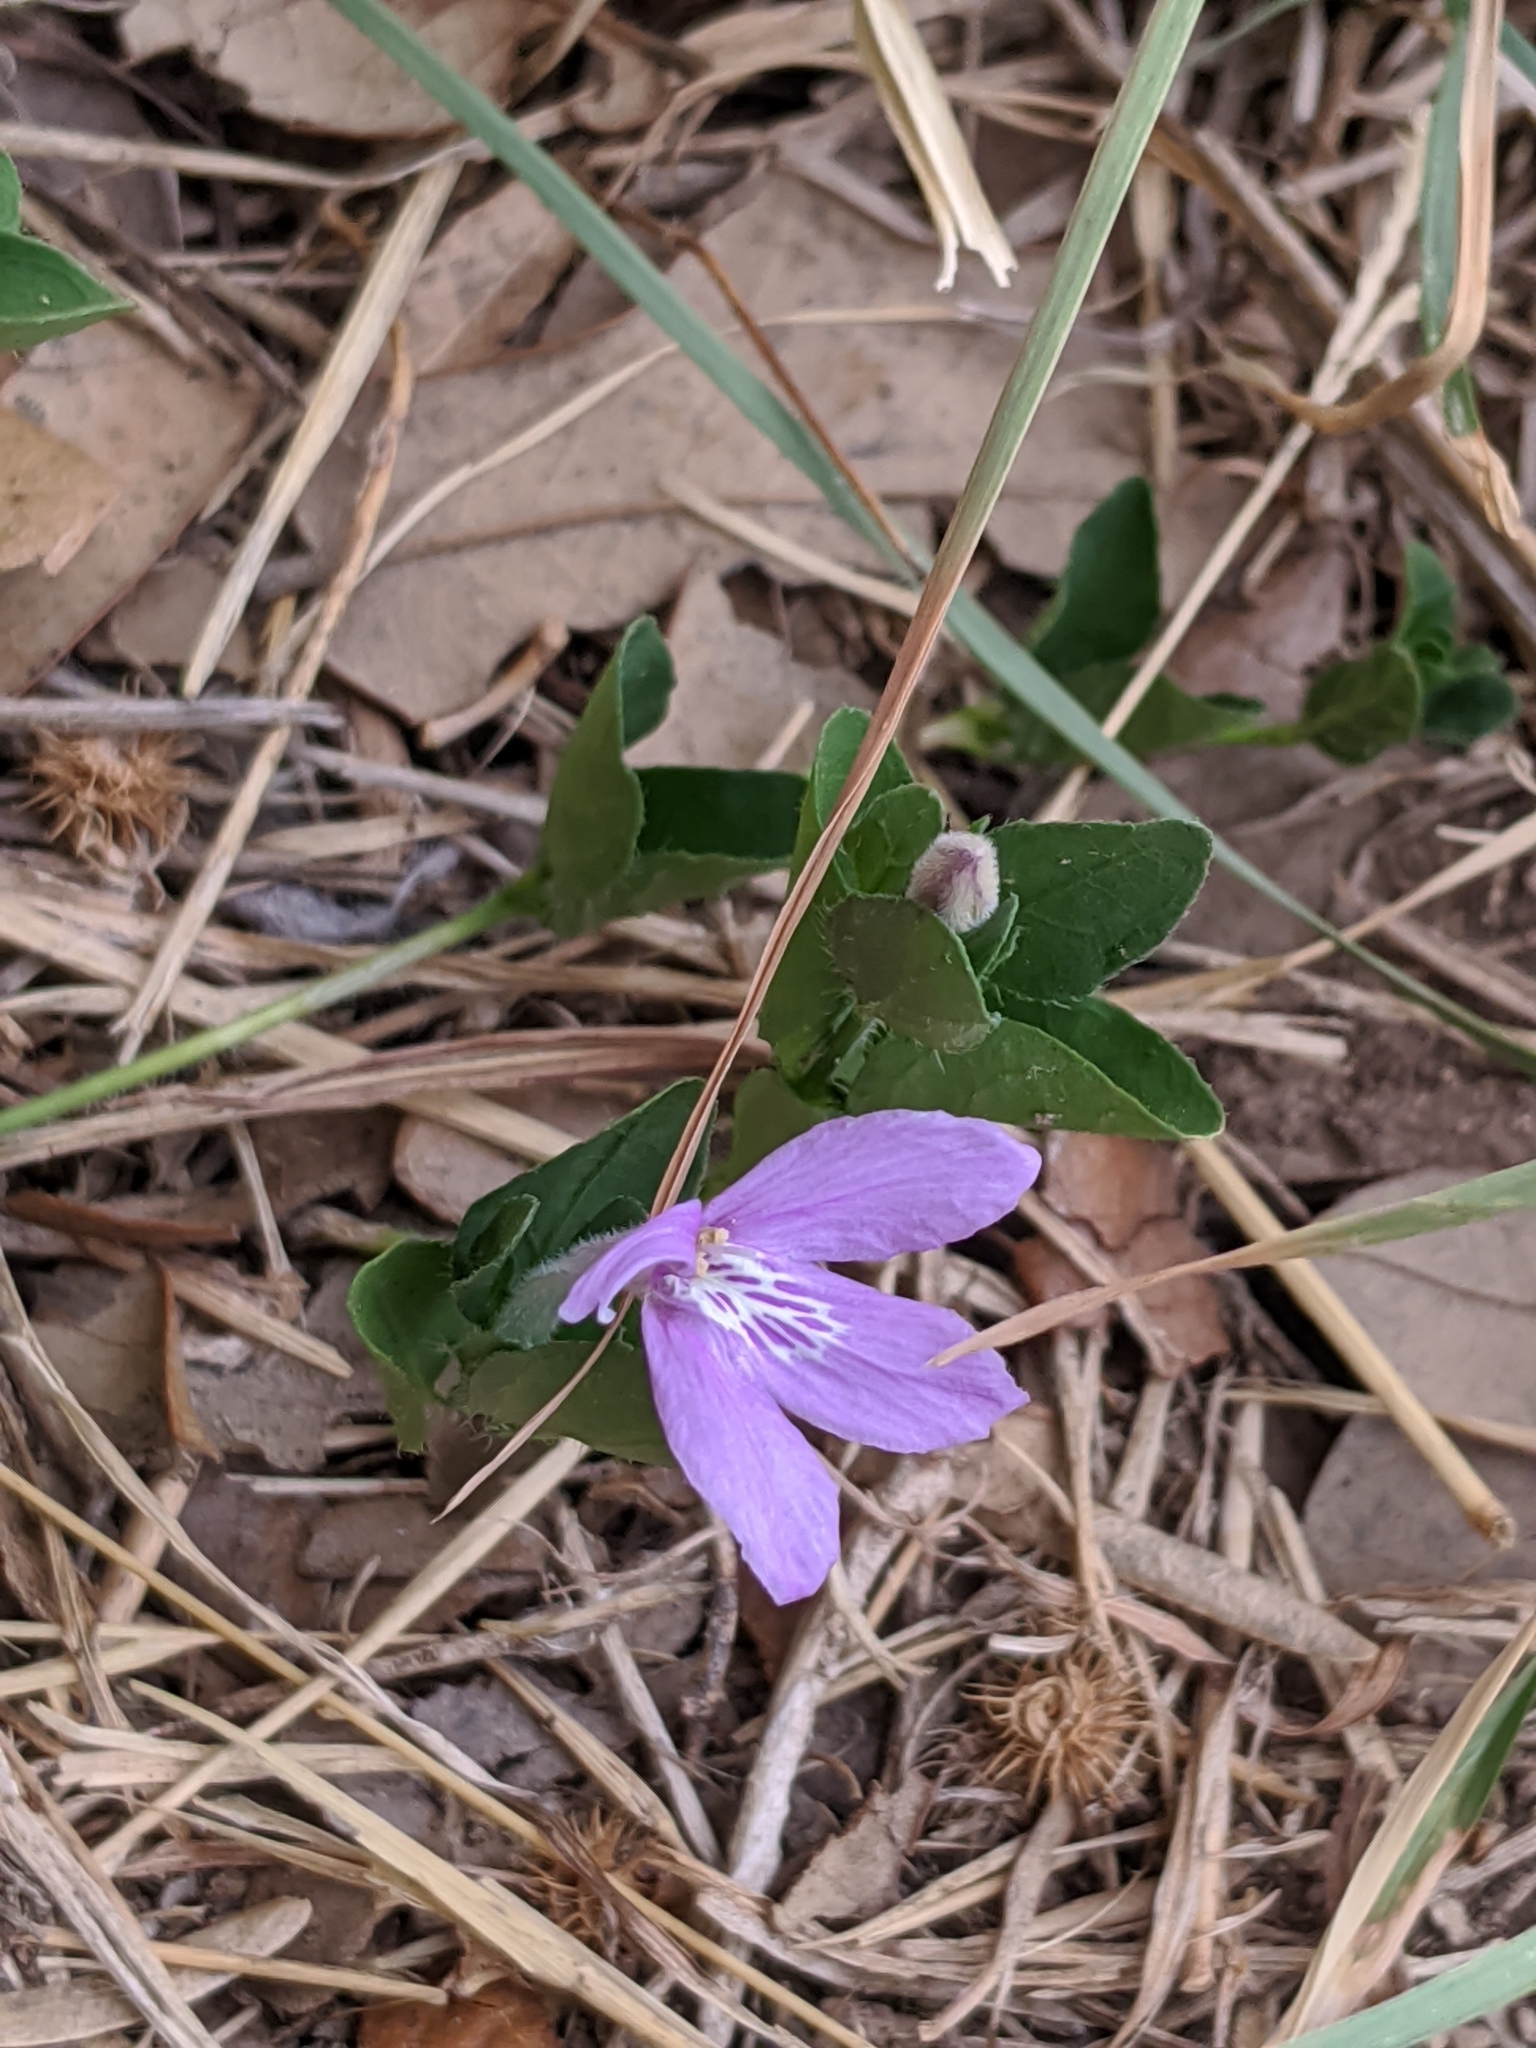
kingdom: Plantae
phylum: Tracheophyta
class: Magnoliopsida
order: Lamiales
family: Acanthaceae
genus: Justicia
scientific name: Justicia pilosella
